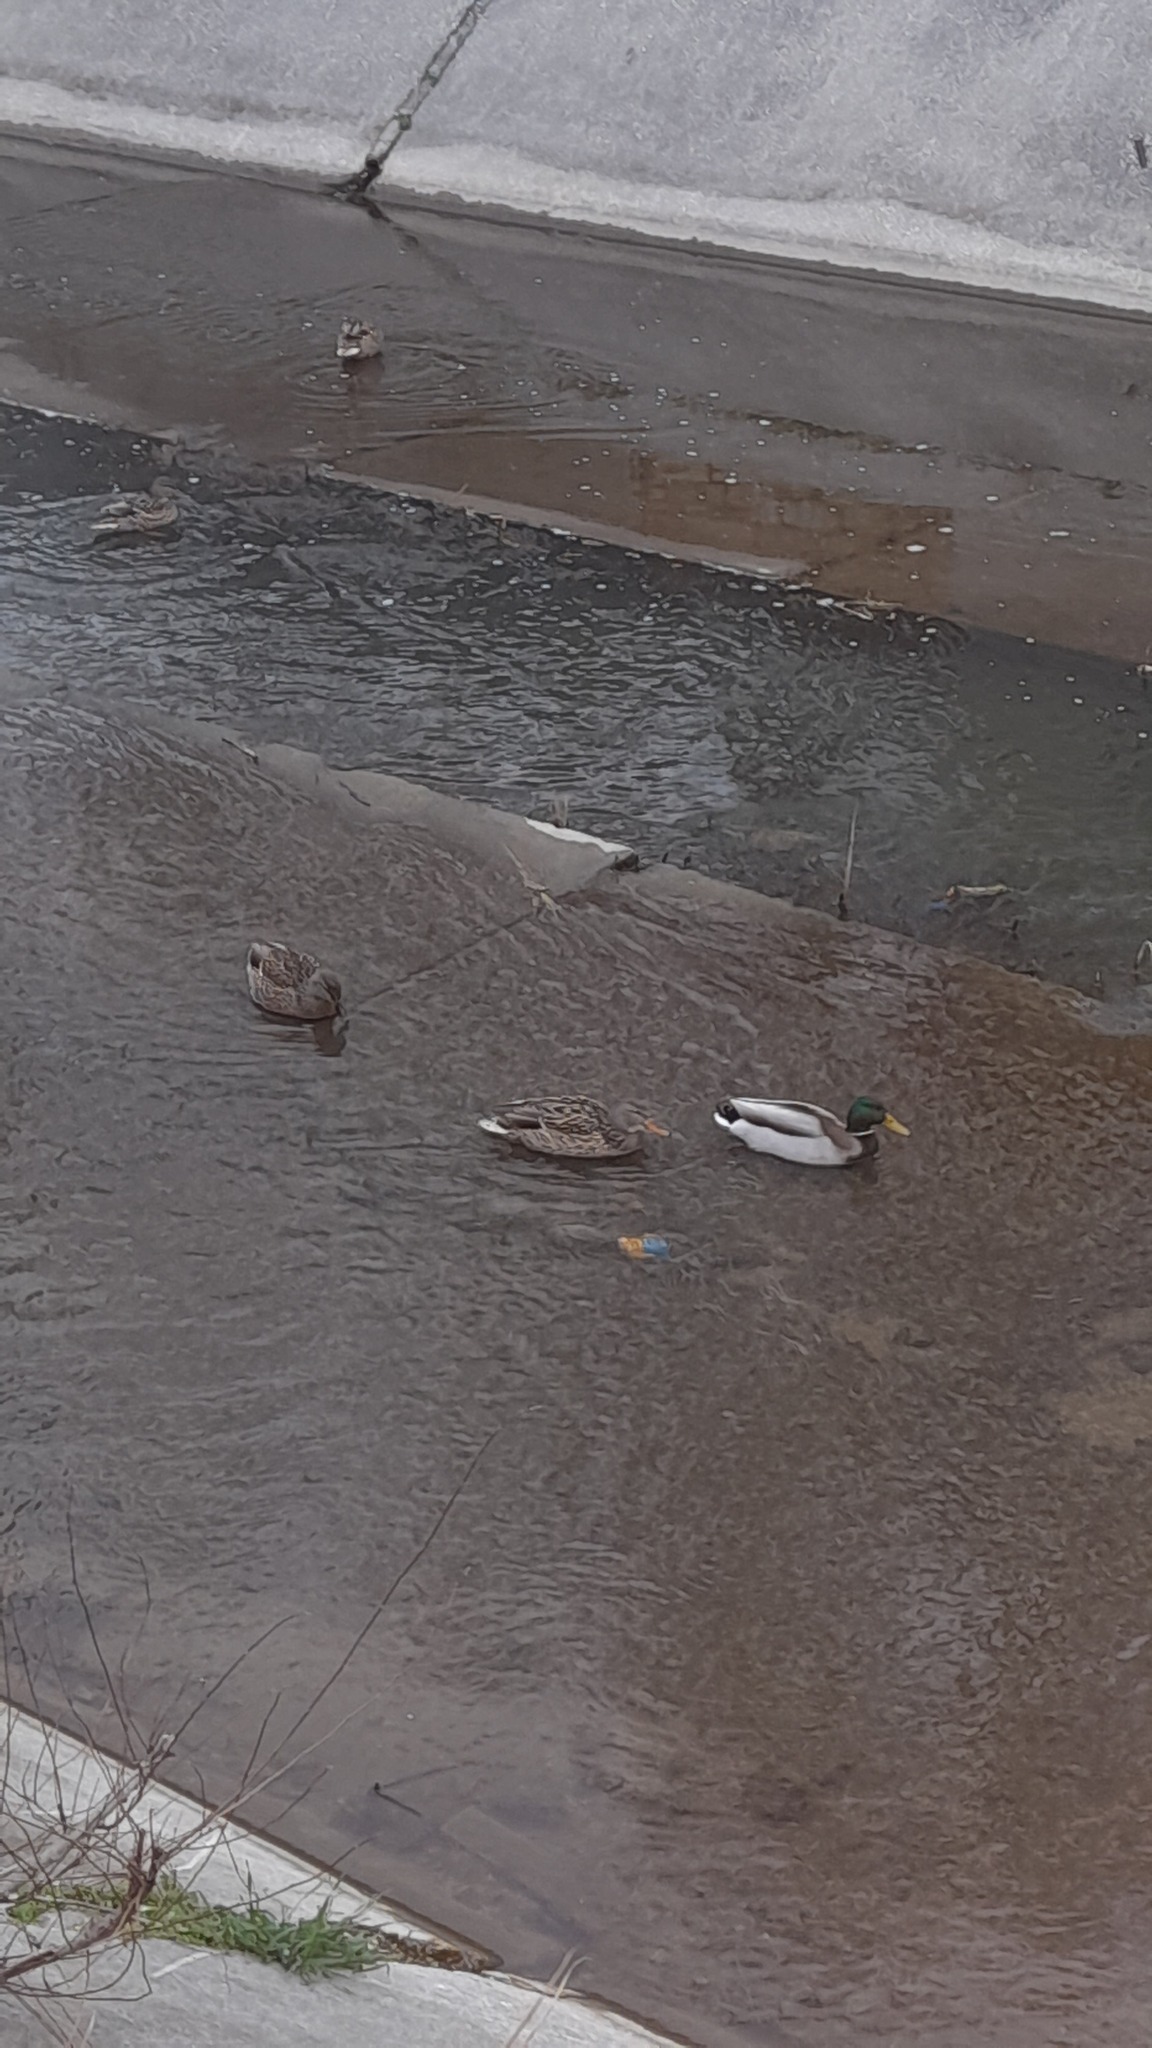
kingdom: Animalia
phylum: Chordata
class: Aves
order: Anseriformes
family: Anatidae
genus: Anas
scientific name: Anas platyrhynchos
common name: Mallard
